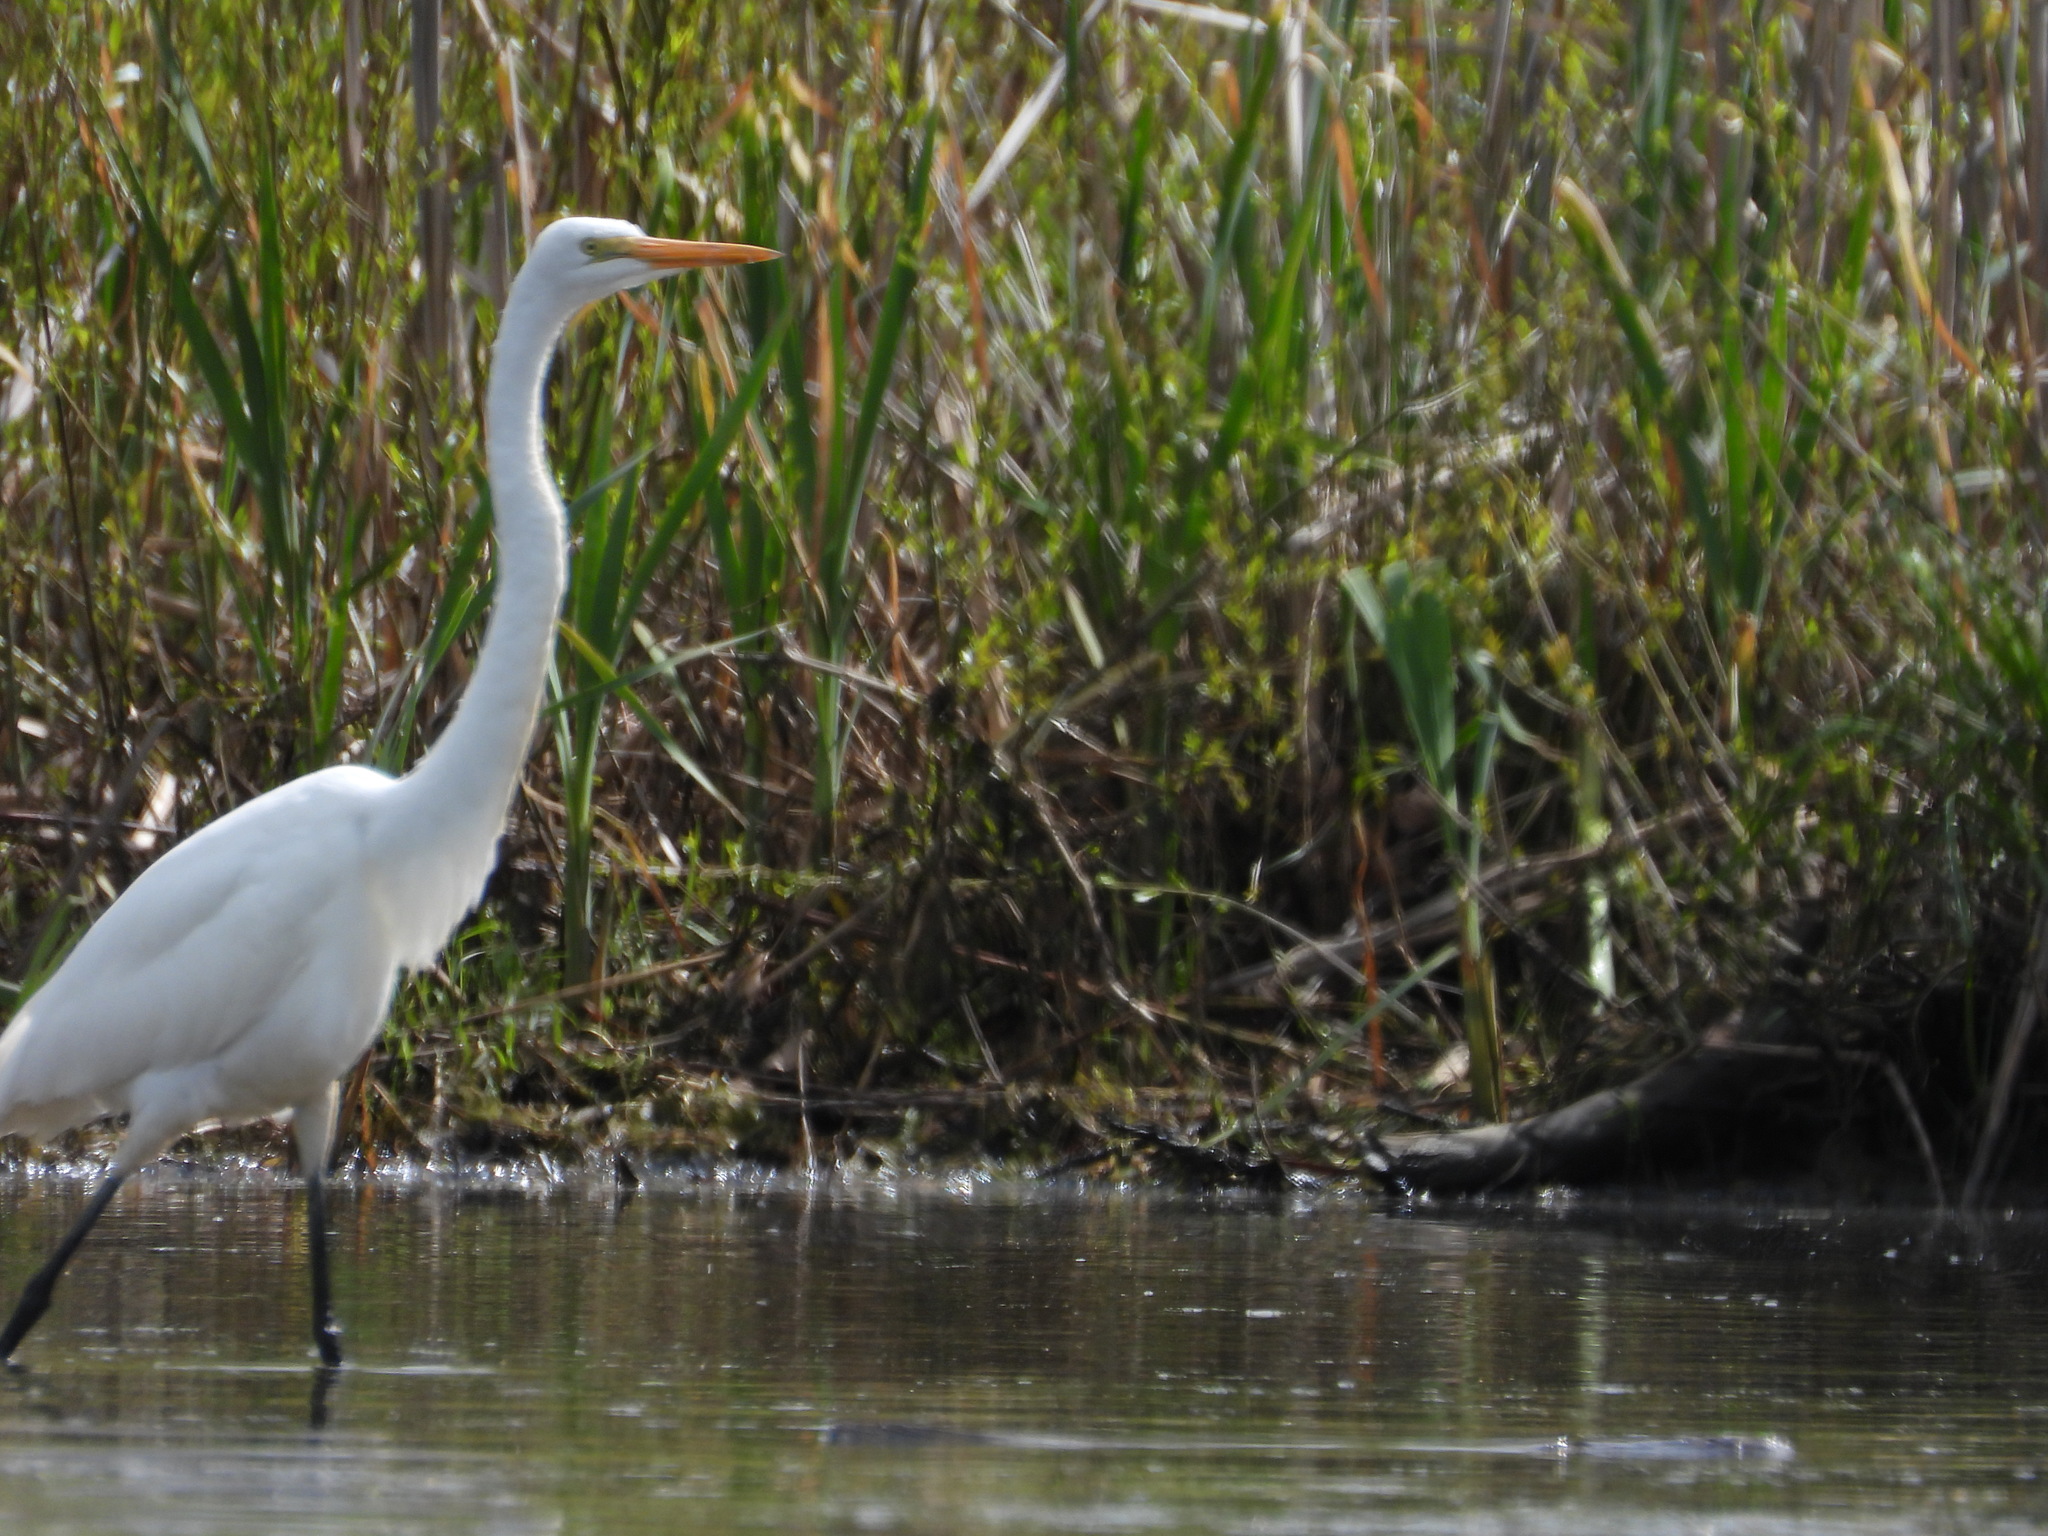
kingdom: Animalia
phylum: Chordata
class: Aves
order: Pelecaniformes
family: Ardeidae
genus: Ardea
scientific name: Ardea alba
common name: Great egret
